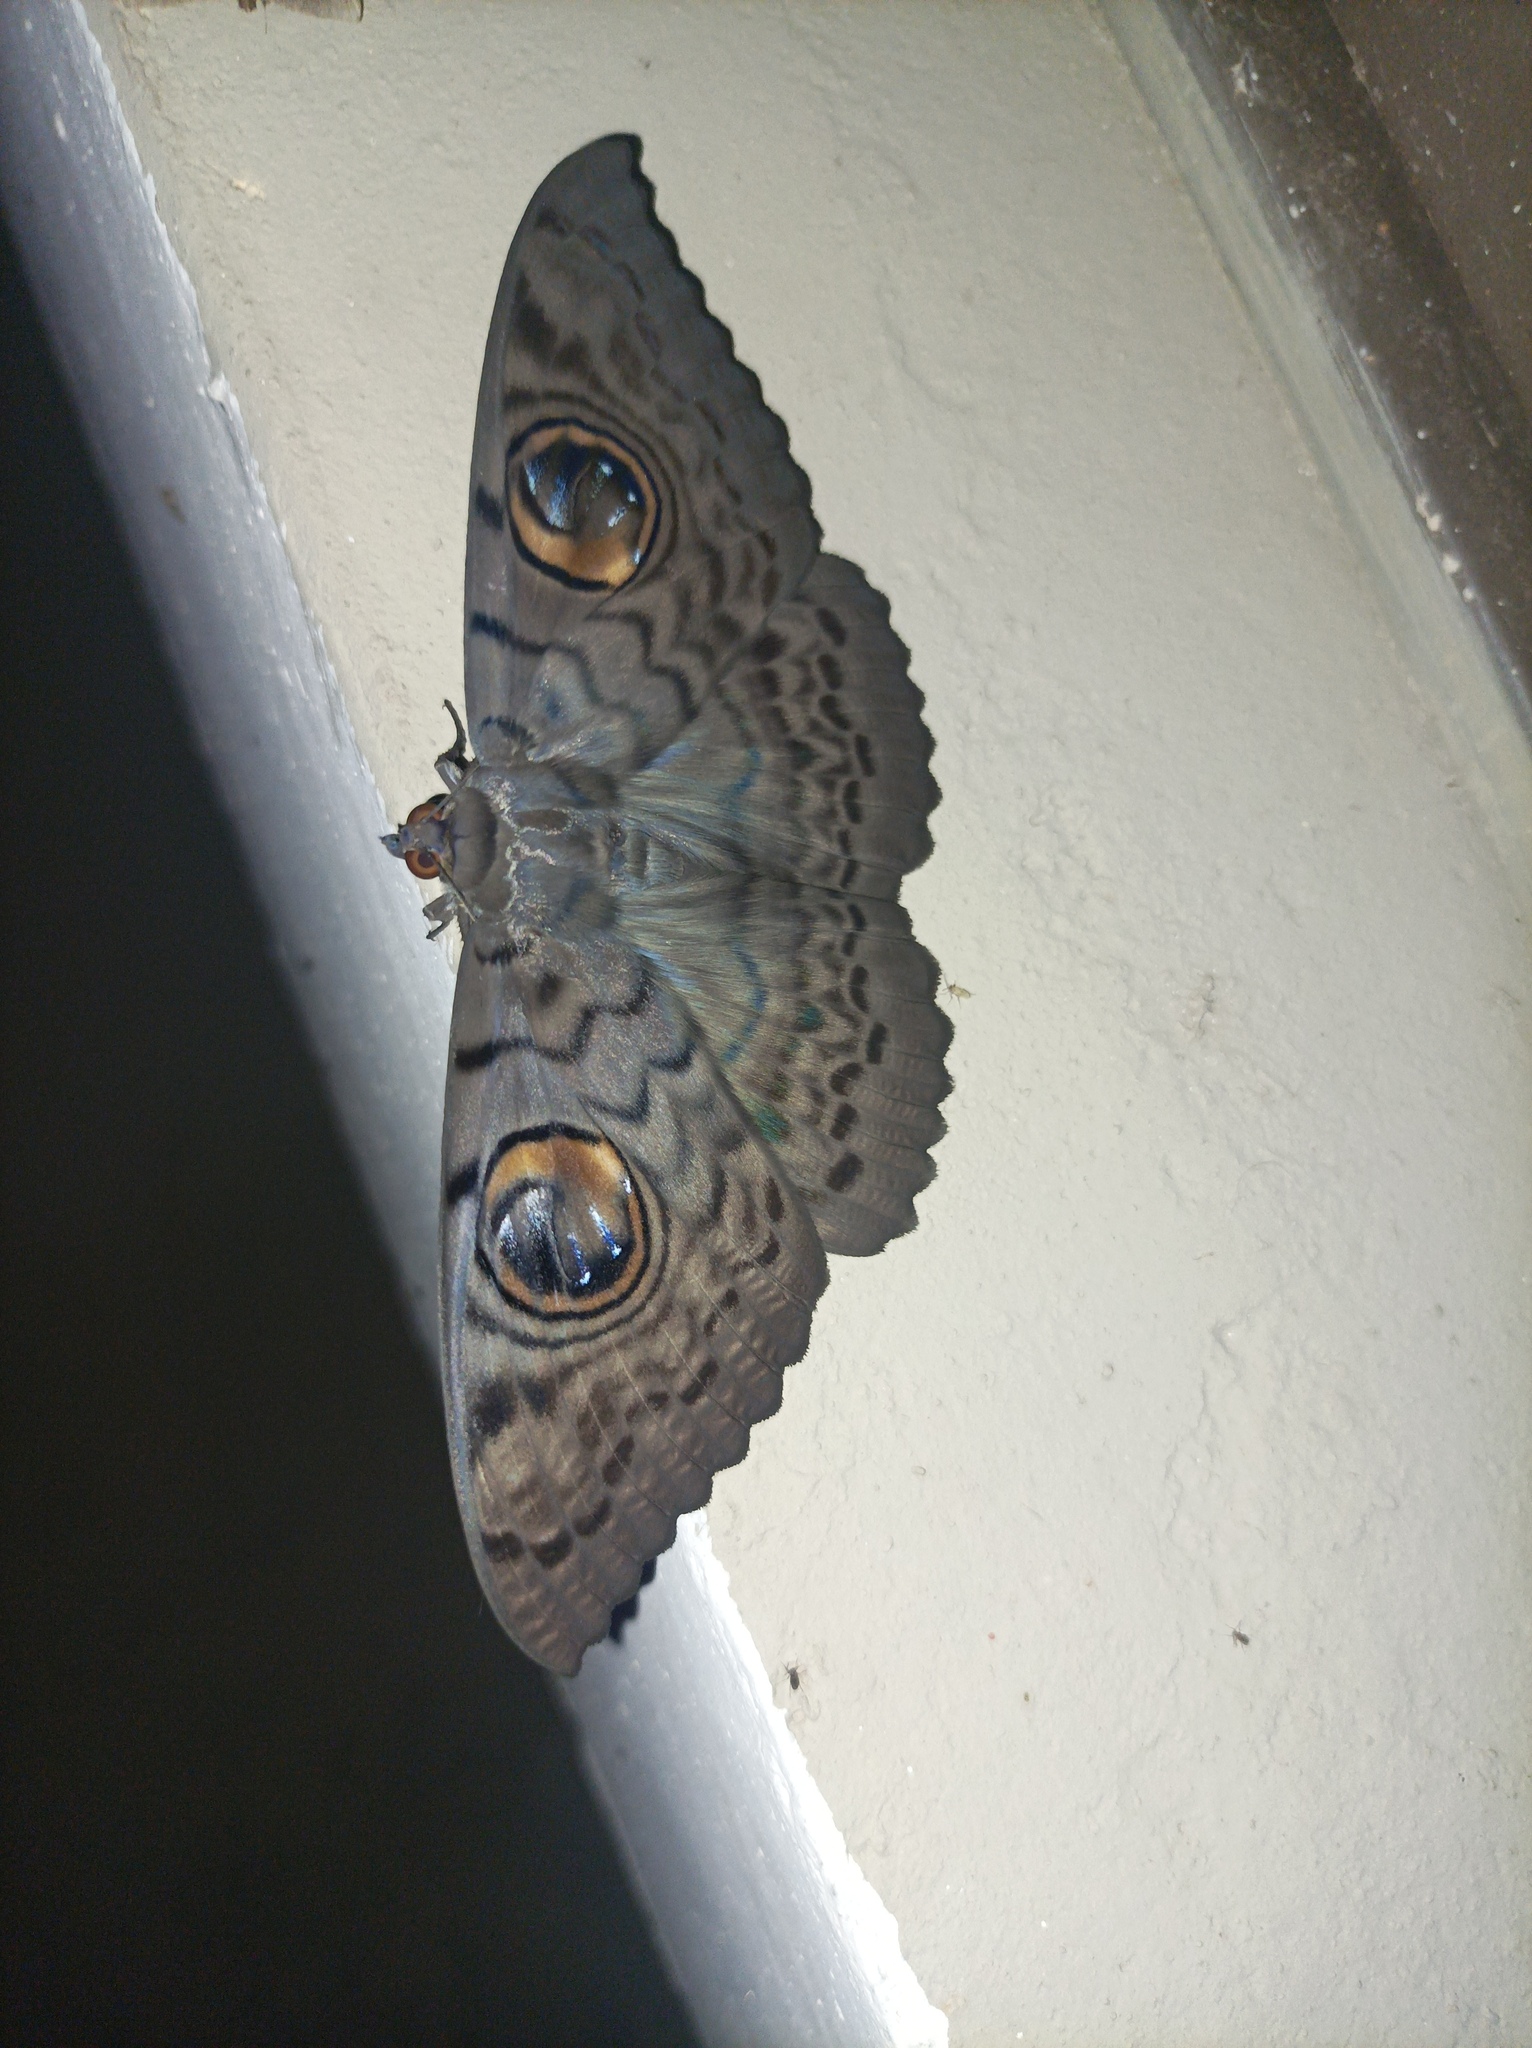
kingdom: Animalia
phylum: Arthropoda
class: Insecta
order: Lepidoptera
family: Erebidae
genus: Erebus
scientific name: Erebus macrops
